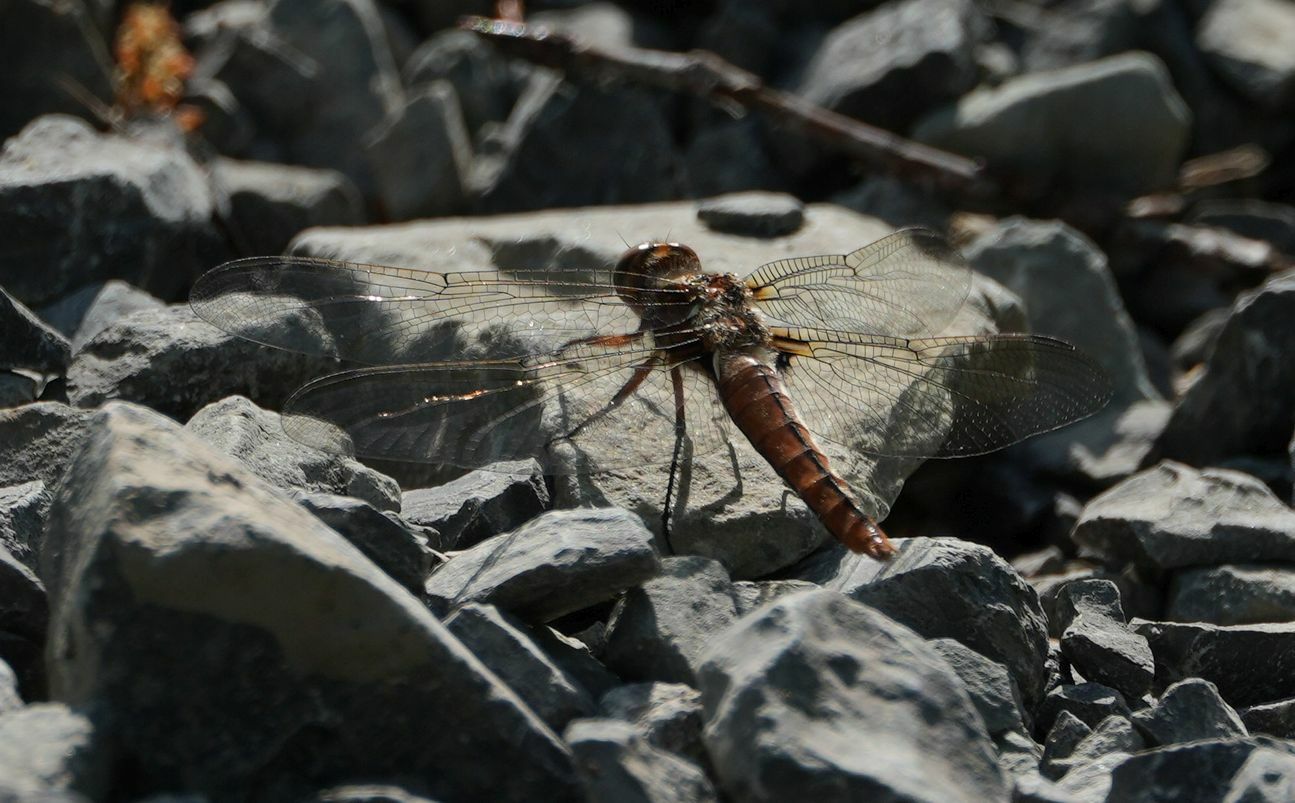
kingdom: Animalia
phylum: Arthropoda
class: Insecta
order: Odonata
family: Libellulidae
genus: Ladona
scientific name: Ladona julia
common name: Chalk-fronted corporal
